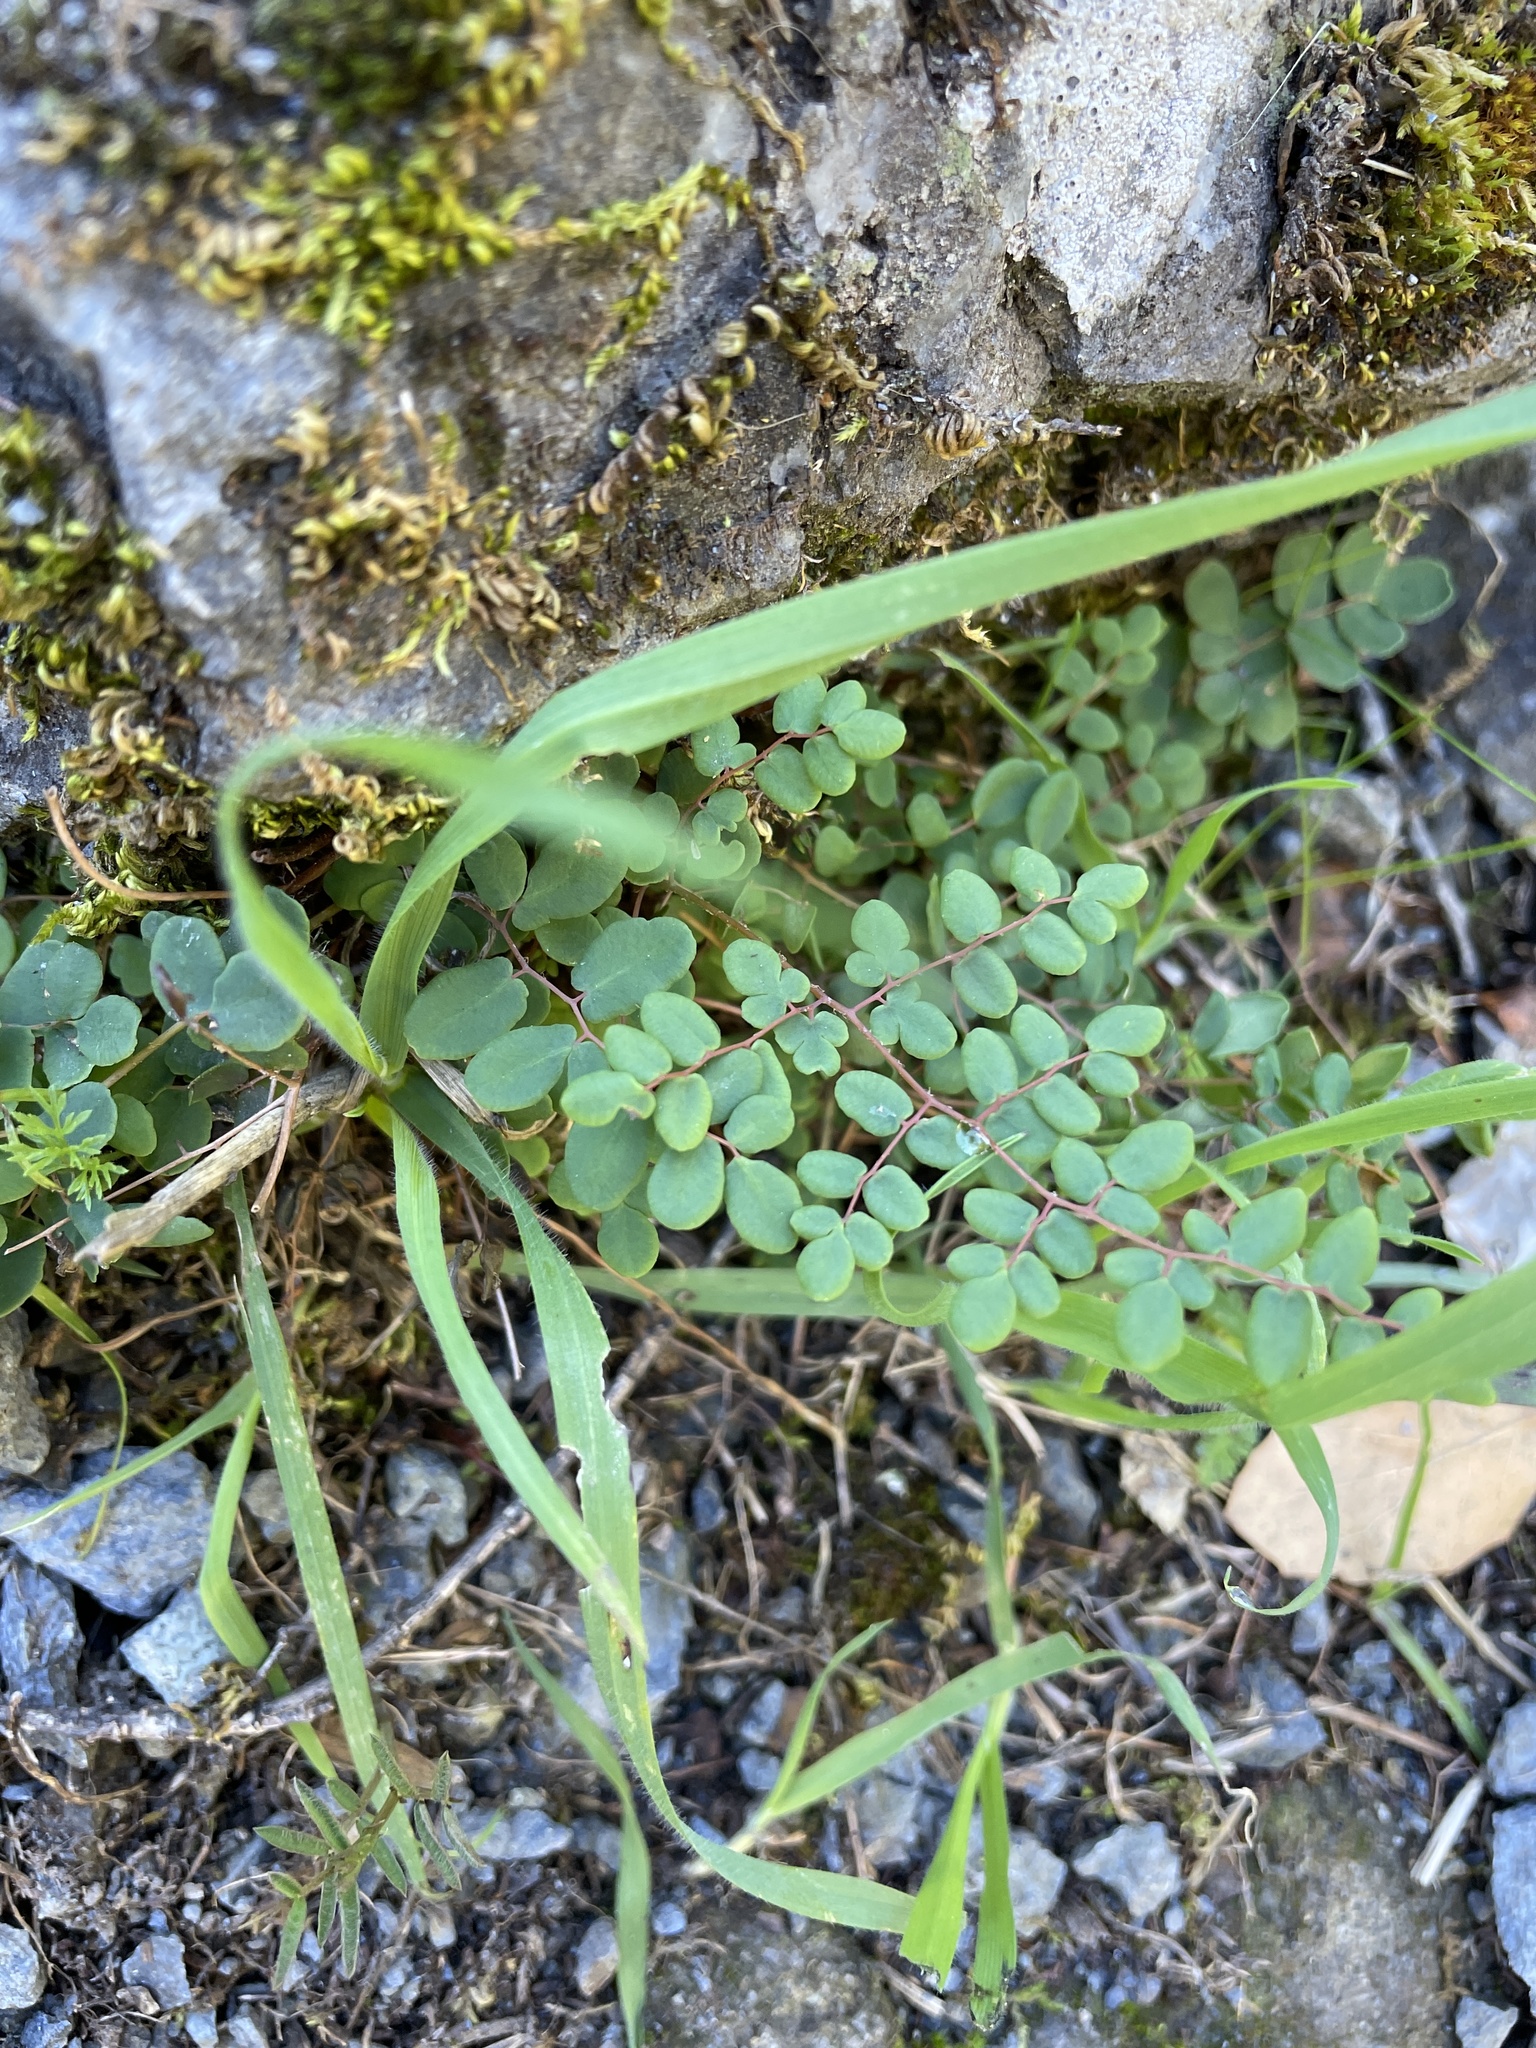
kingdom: Plantae
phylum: Tracheophyta
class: Polypodiopsida
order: Polypodiales
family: Pteridaceae
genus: Pellaea
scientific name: Pellaea andromedifolia
